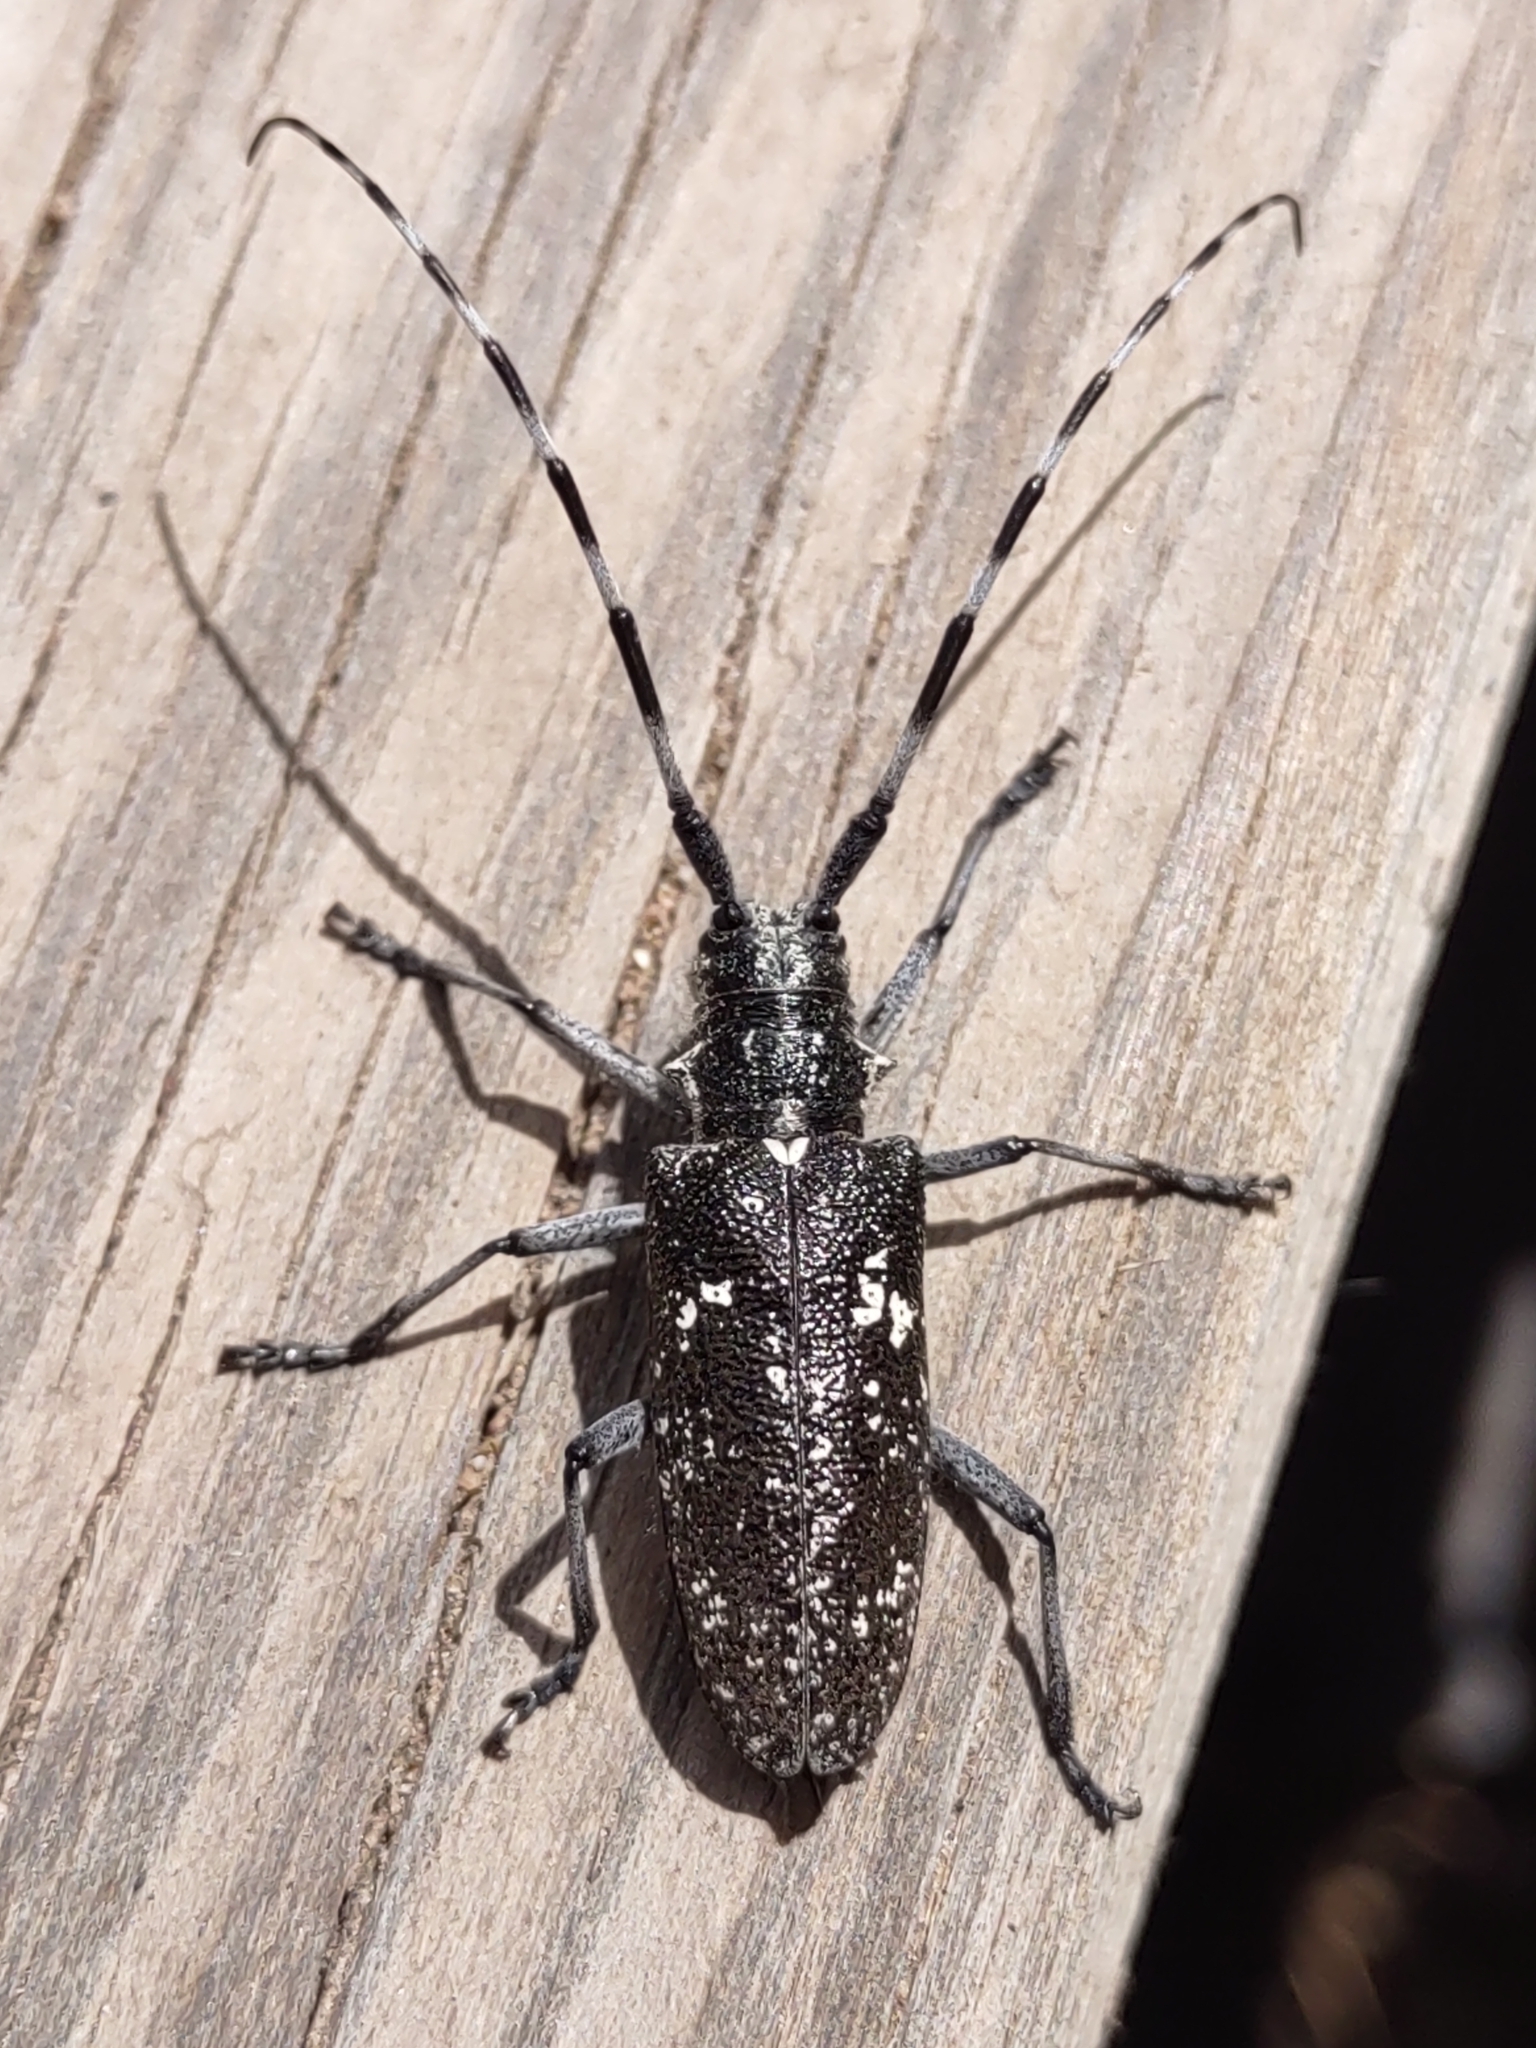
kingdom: Animalia
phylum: Arthropoda
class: Insecta
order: Coleoptera
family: Cerambycidae
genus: Monochamus
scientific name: Monochamus scutellatus
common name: White-spotted sawyer beetle
